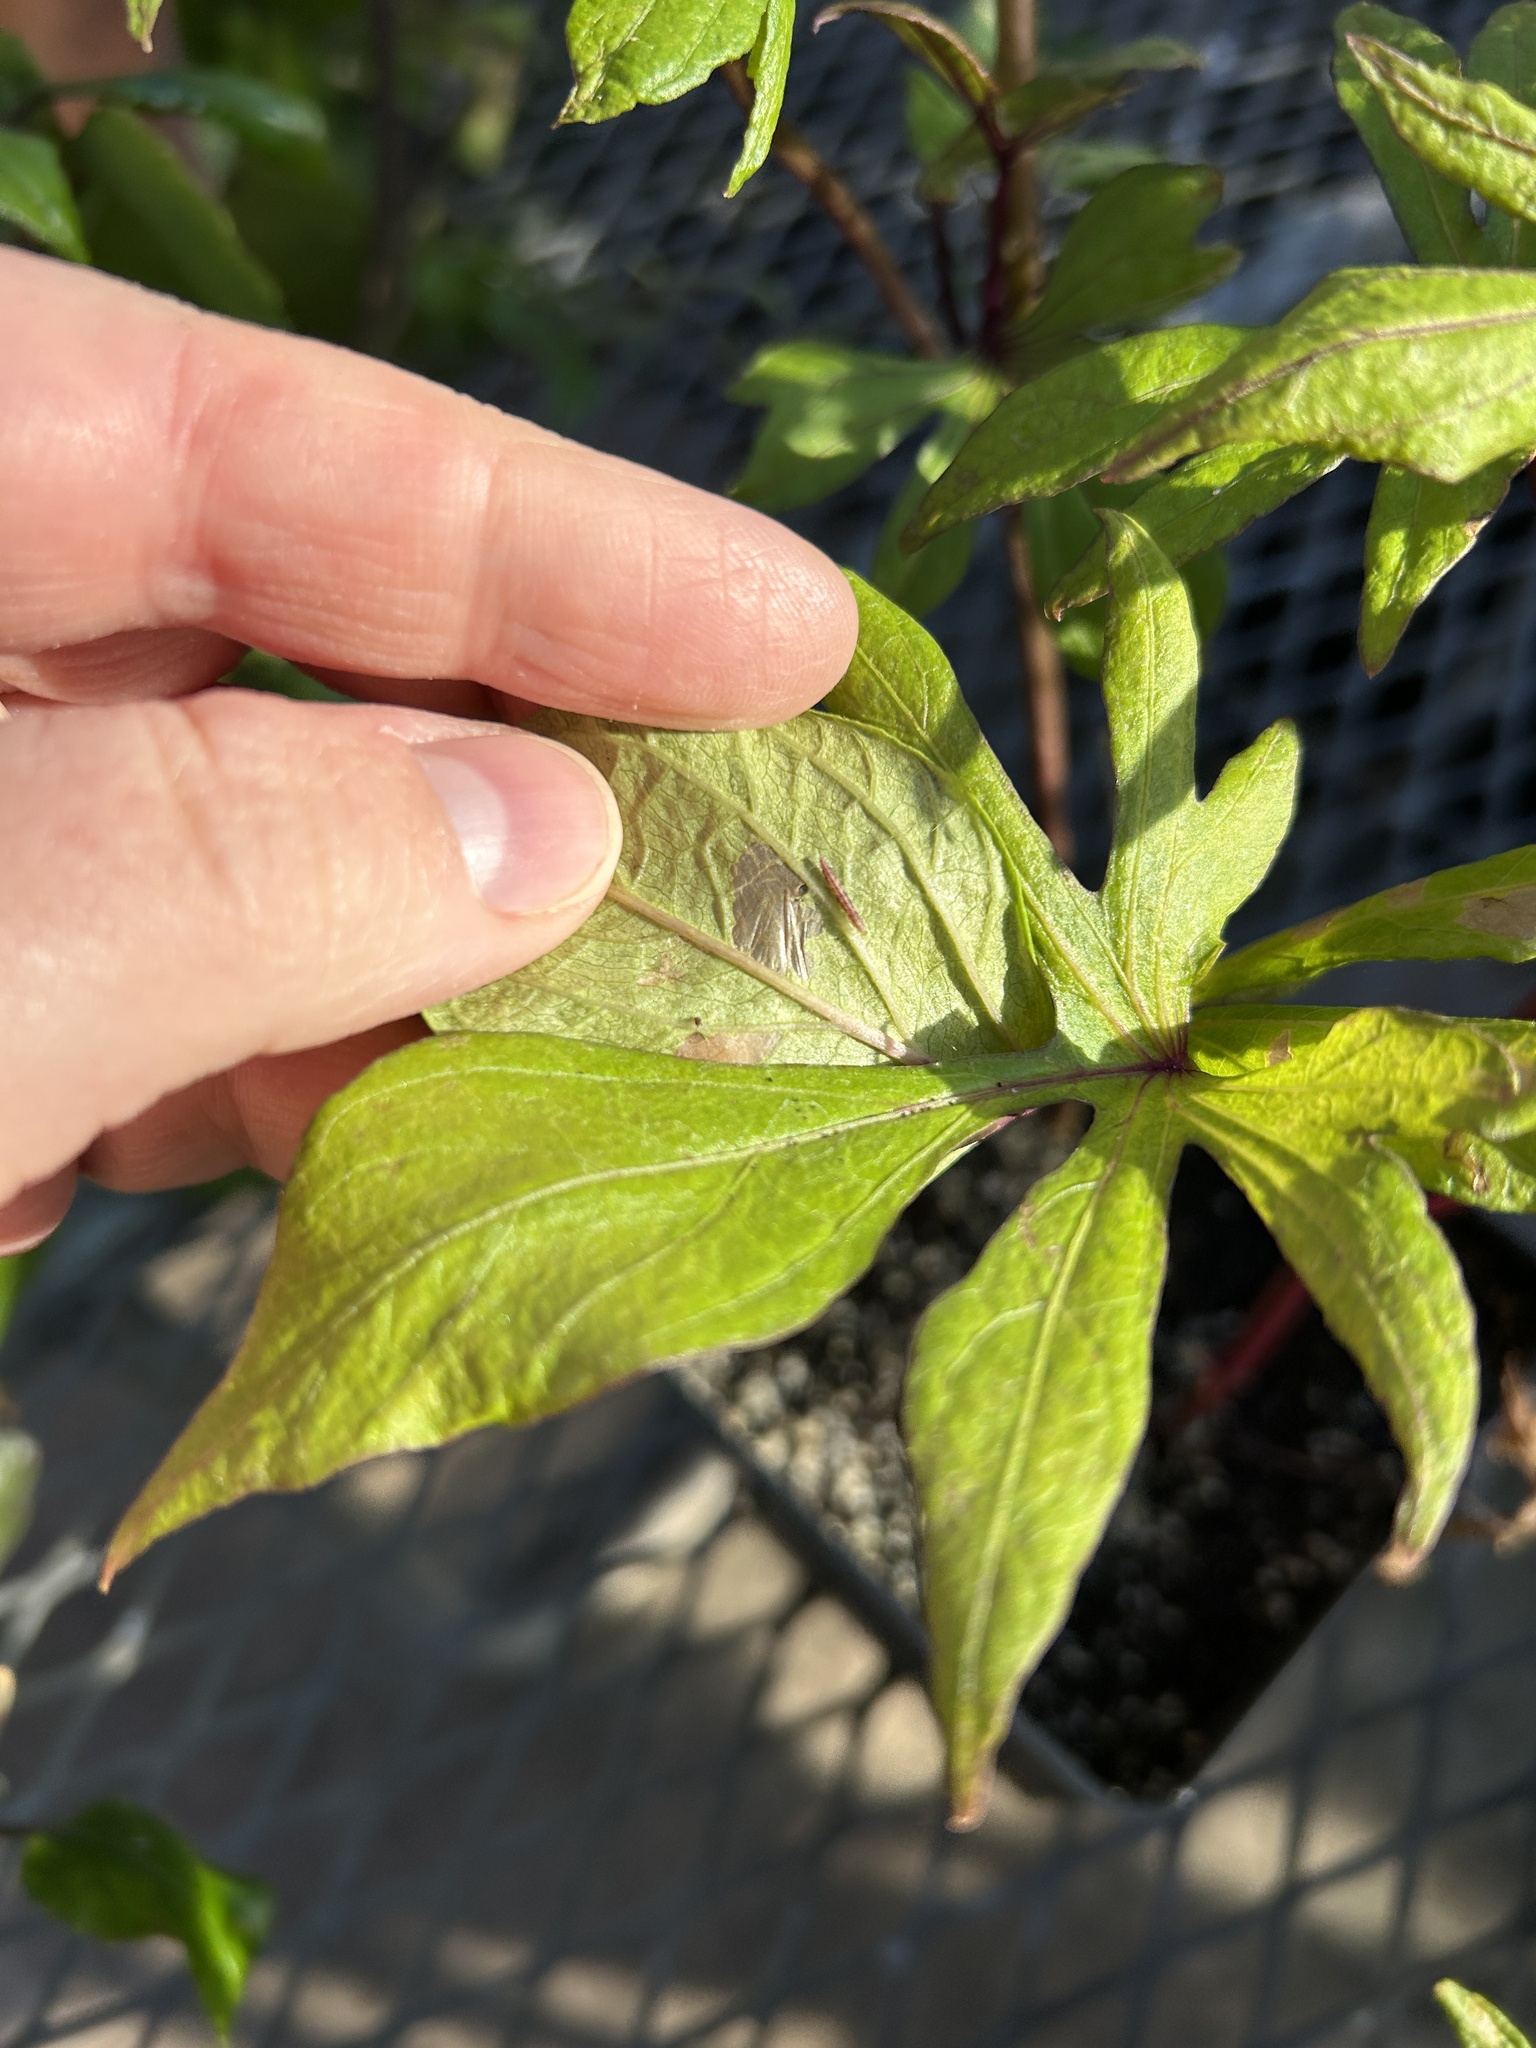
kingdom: Animalia
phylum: Arthropoda
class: Insecta
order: Lepidoptera
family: Bedelliidae
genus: Bedellia
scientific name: Bedellia somnulentella
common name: Morning-glory leafminer moth
